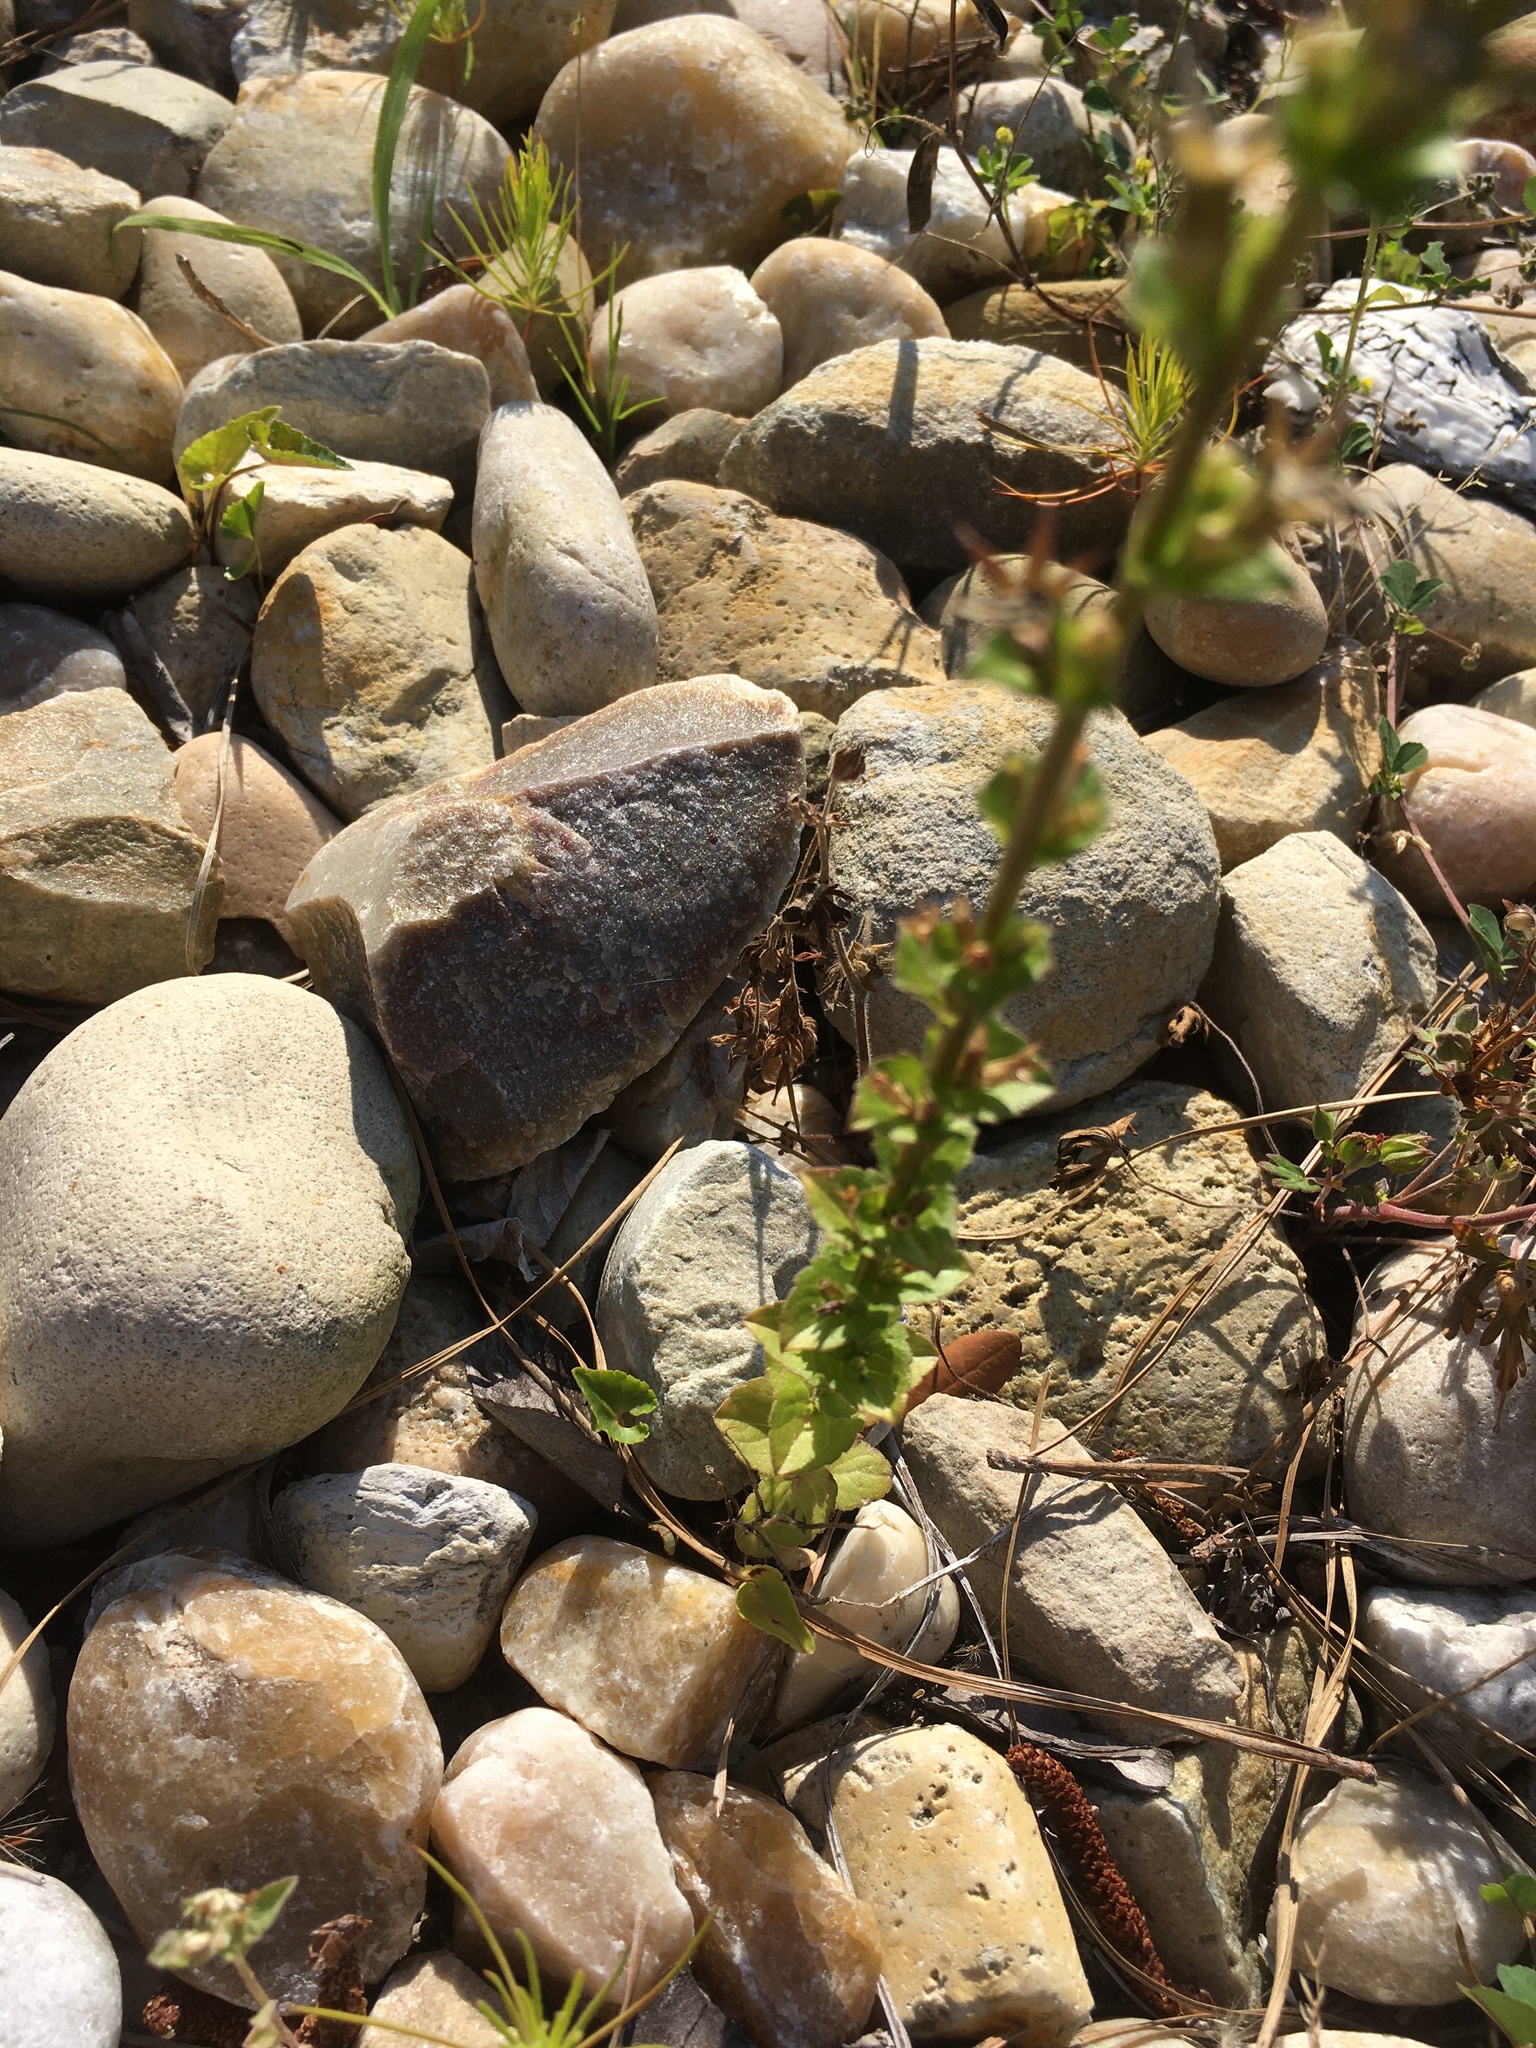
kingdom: Plantae
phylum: Tracheophyta
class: Magnoliopsida
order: Asterales
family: Campanulaceae
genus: Triodanis
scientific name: Triodanis perfoliata
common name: Clasping venus' looking-glass
